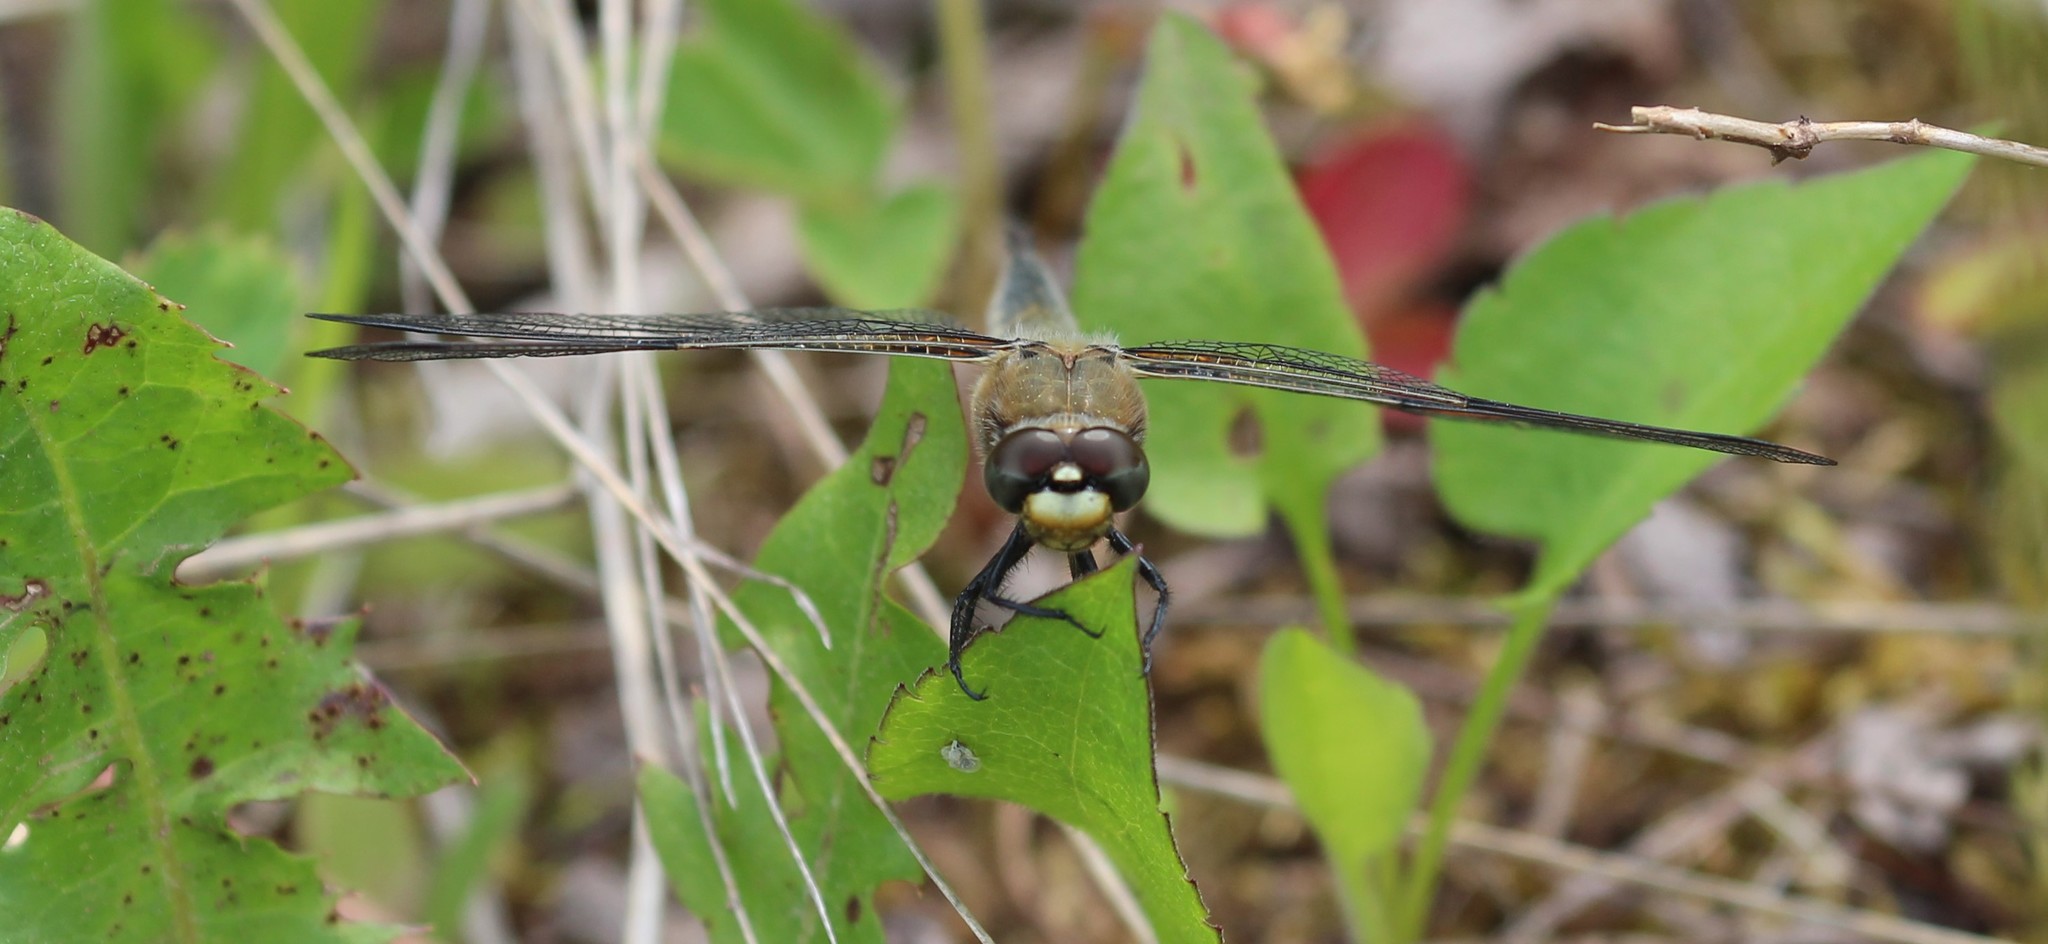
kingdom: Animalia
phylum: Arthropoda
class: Insecta
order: Odonata
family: Libellulidae
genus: Libellula
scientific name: Libellula quadrimaculata
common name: Four-spotted chaser
